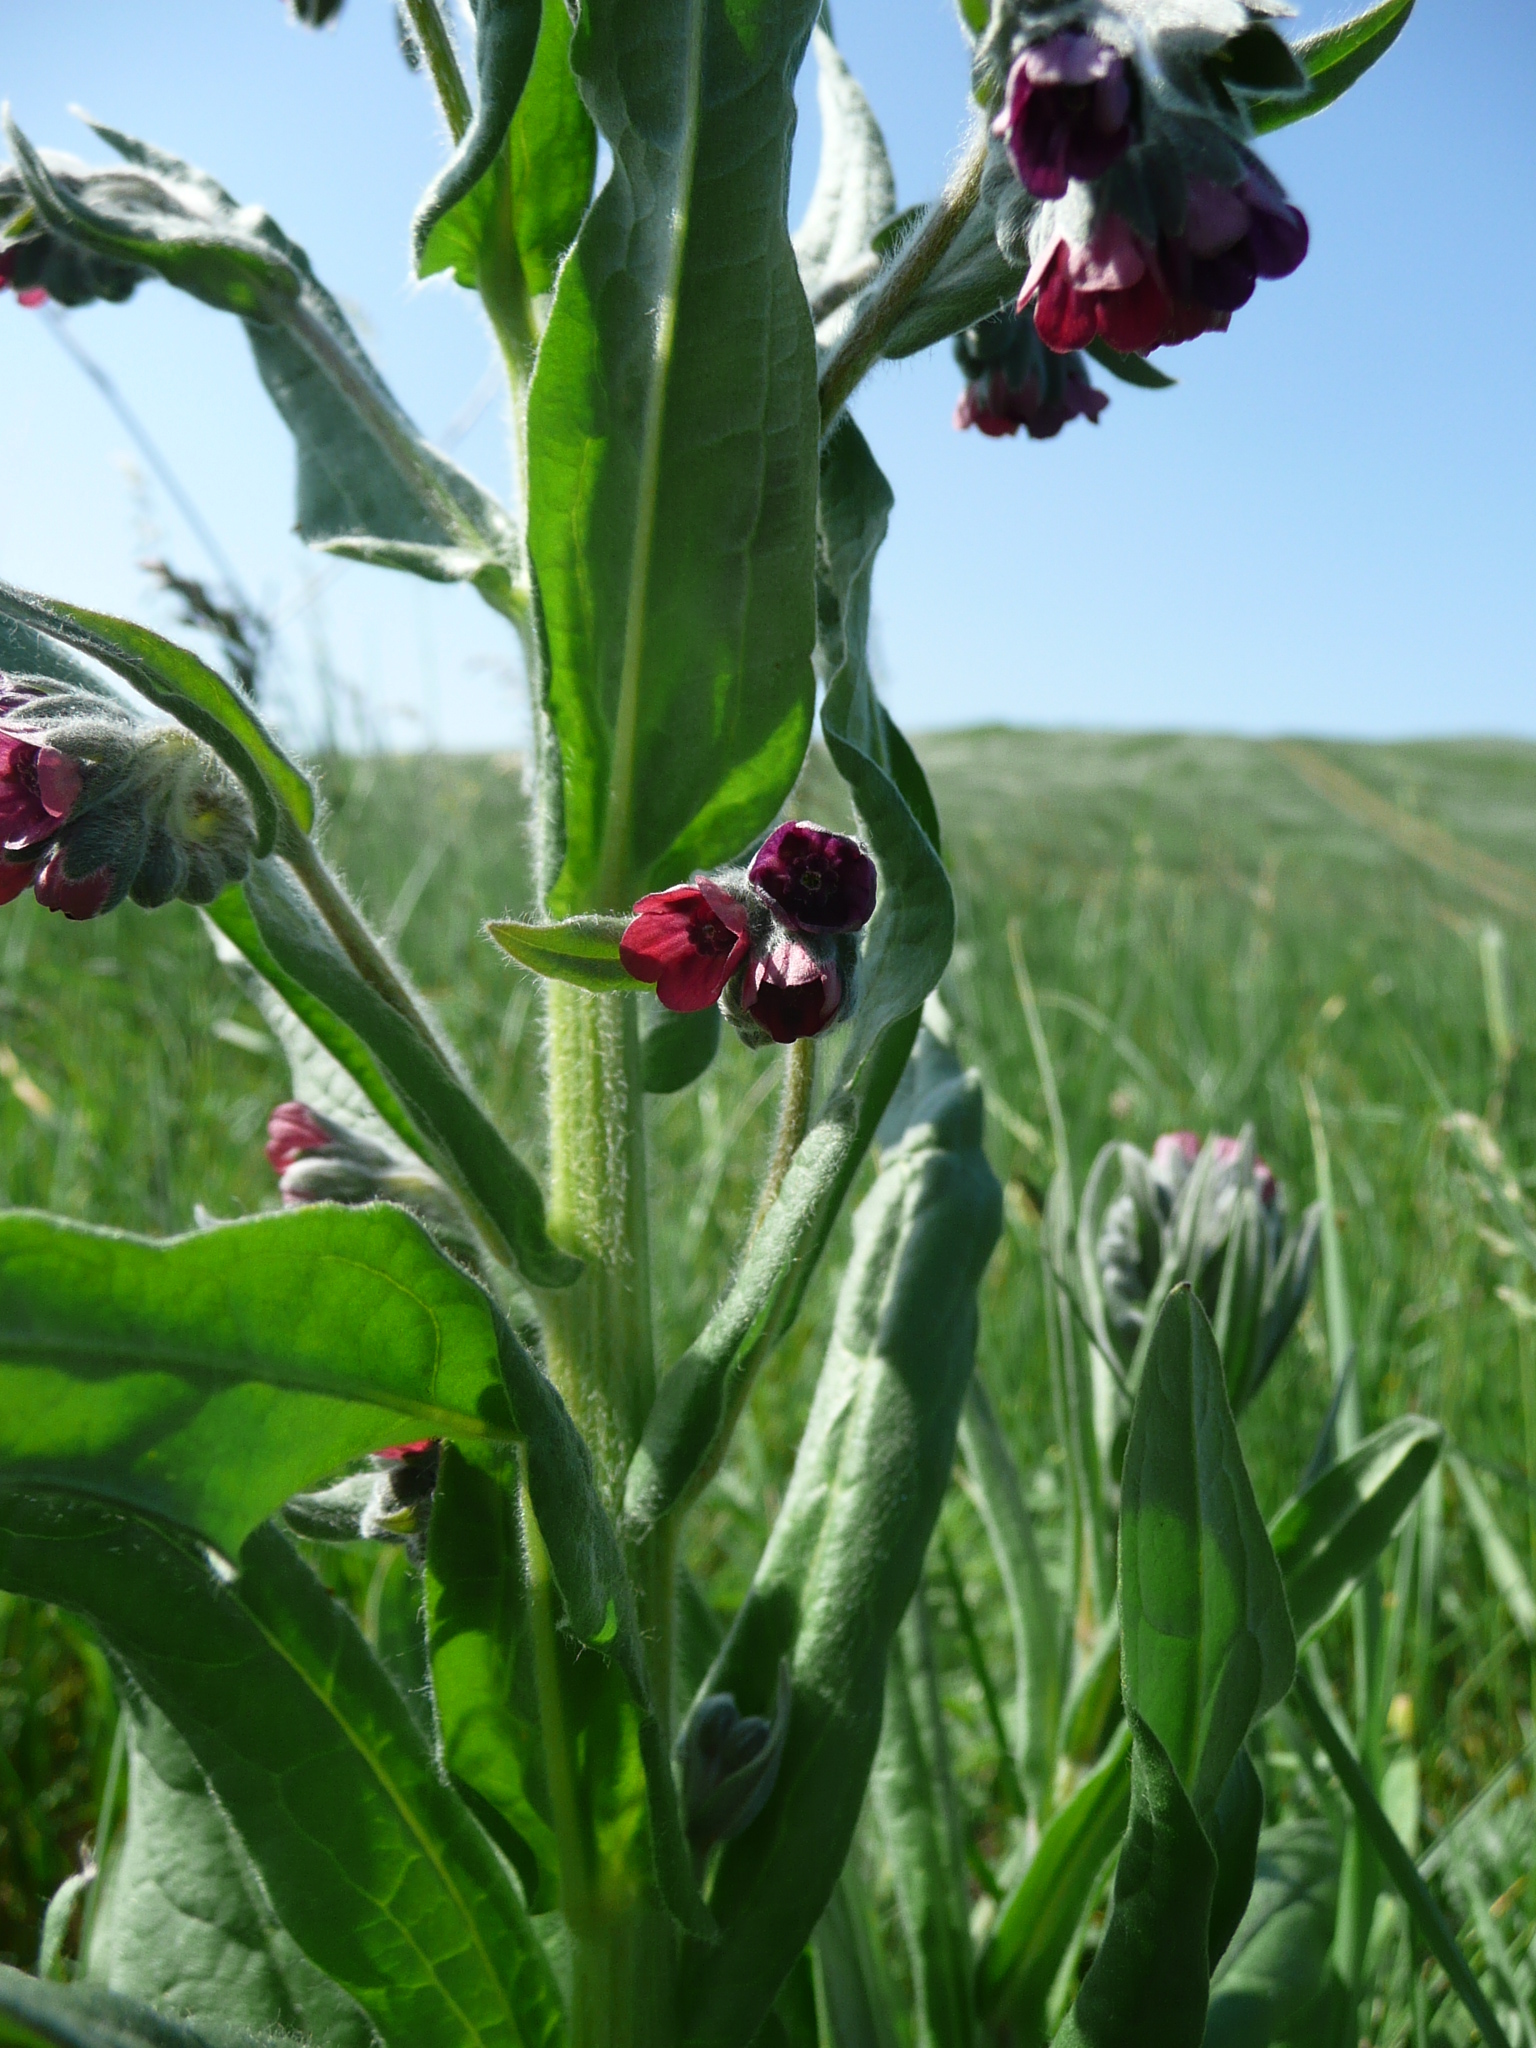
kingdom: Plantae
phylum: Tracheophyta
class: Magnoliopsida
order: Boraginales
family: Boraginaceae
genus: Cynoglossum
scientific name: Cynoglossum officinale
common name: Hound's-tongue
